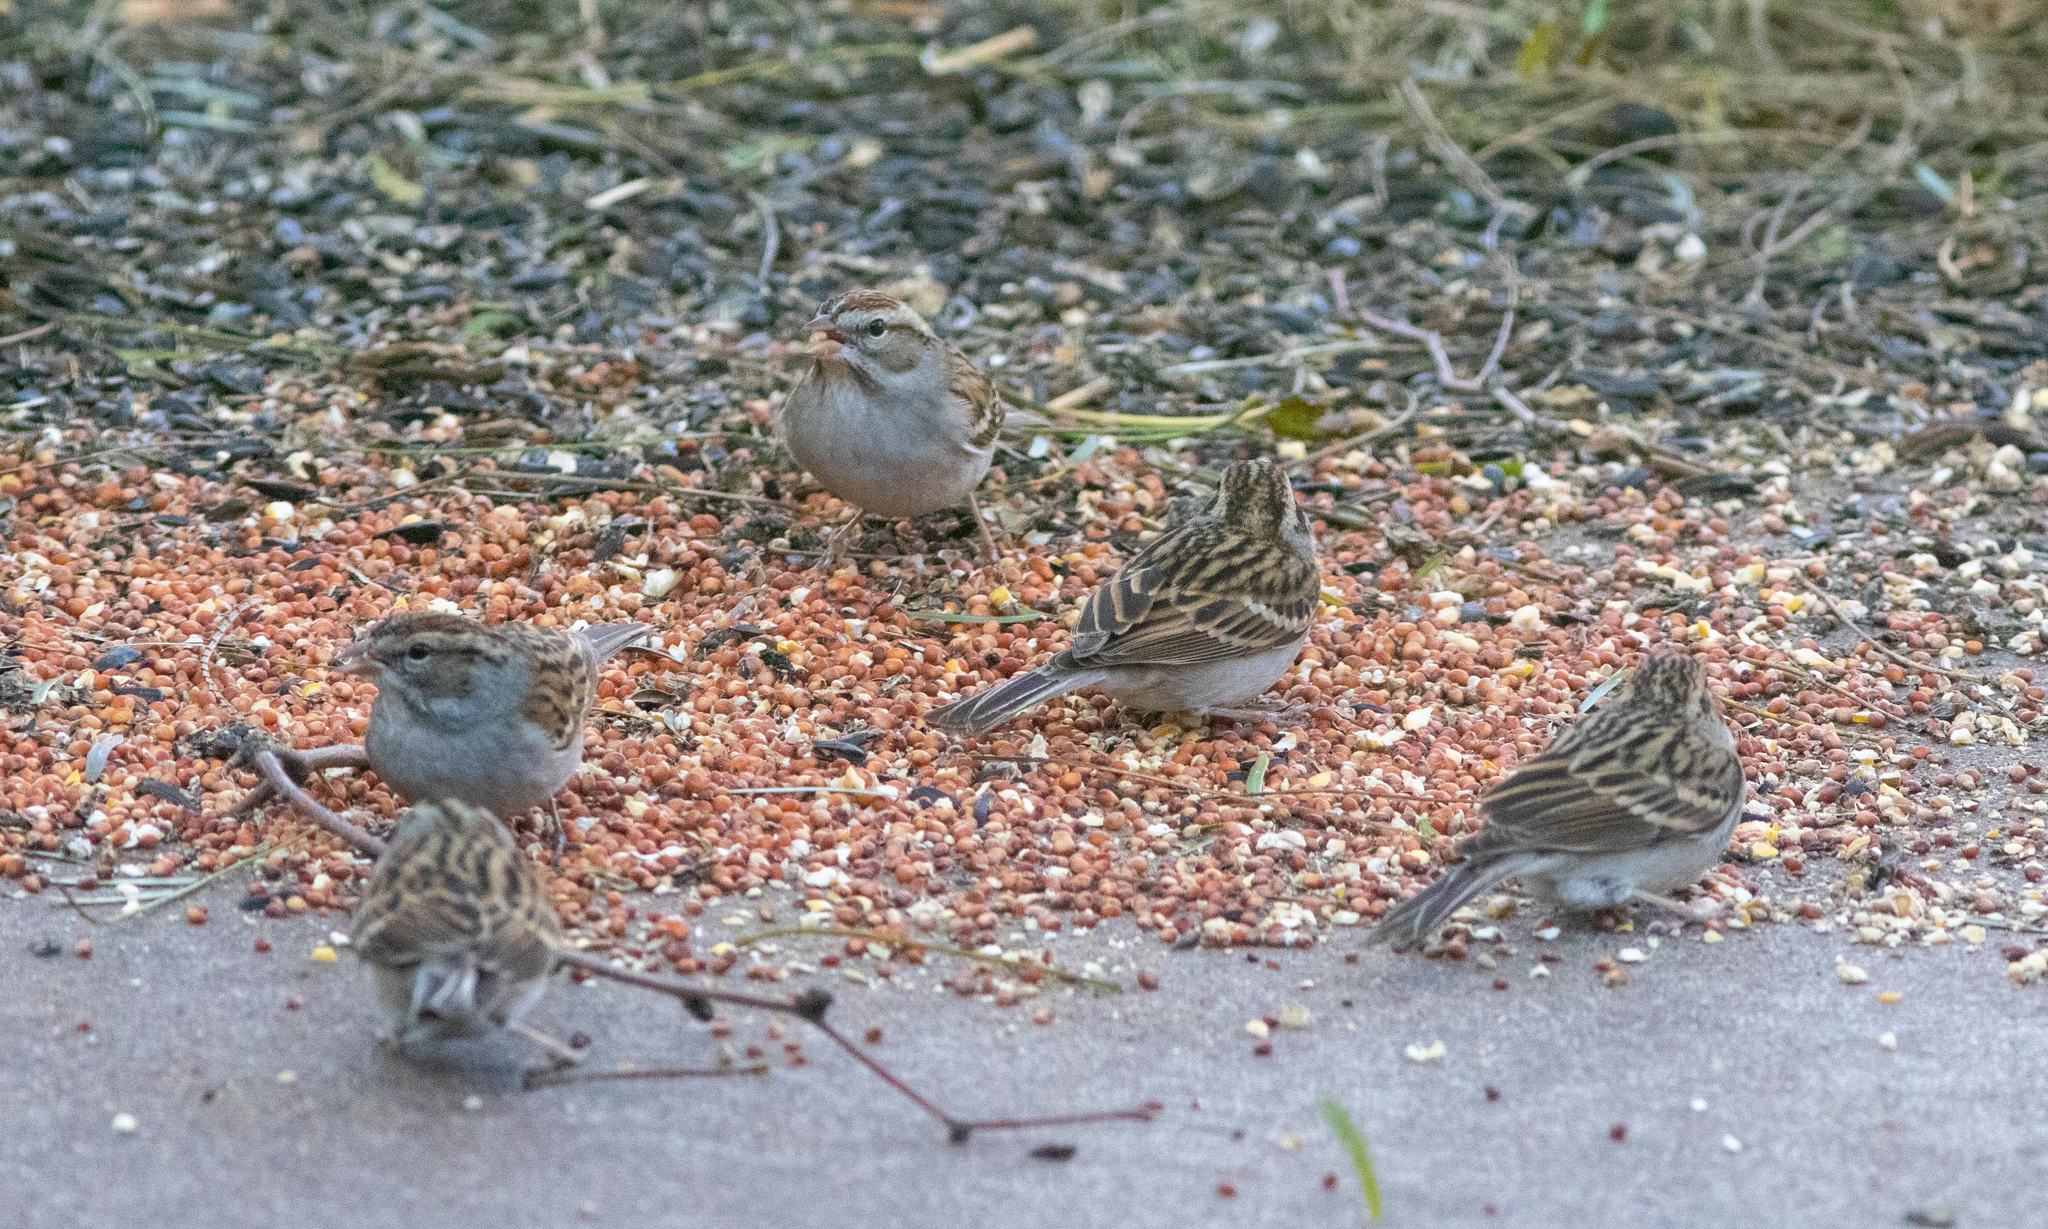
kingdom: Animalia
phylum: Chordata
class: Aves
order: Passeriformes
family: Passerellidae
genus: Spizella
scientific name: Spizella passerina
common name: Chipping sparrow
